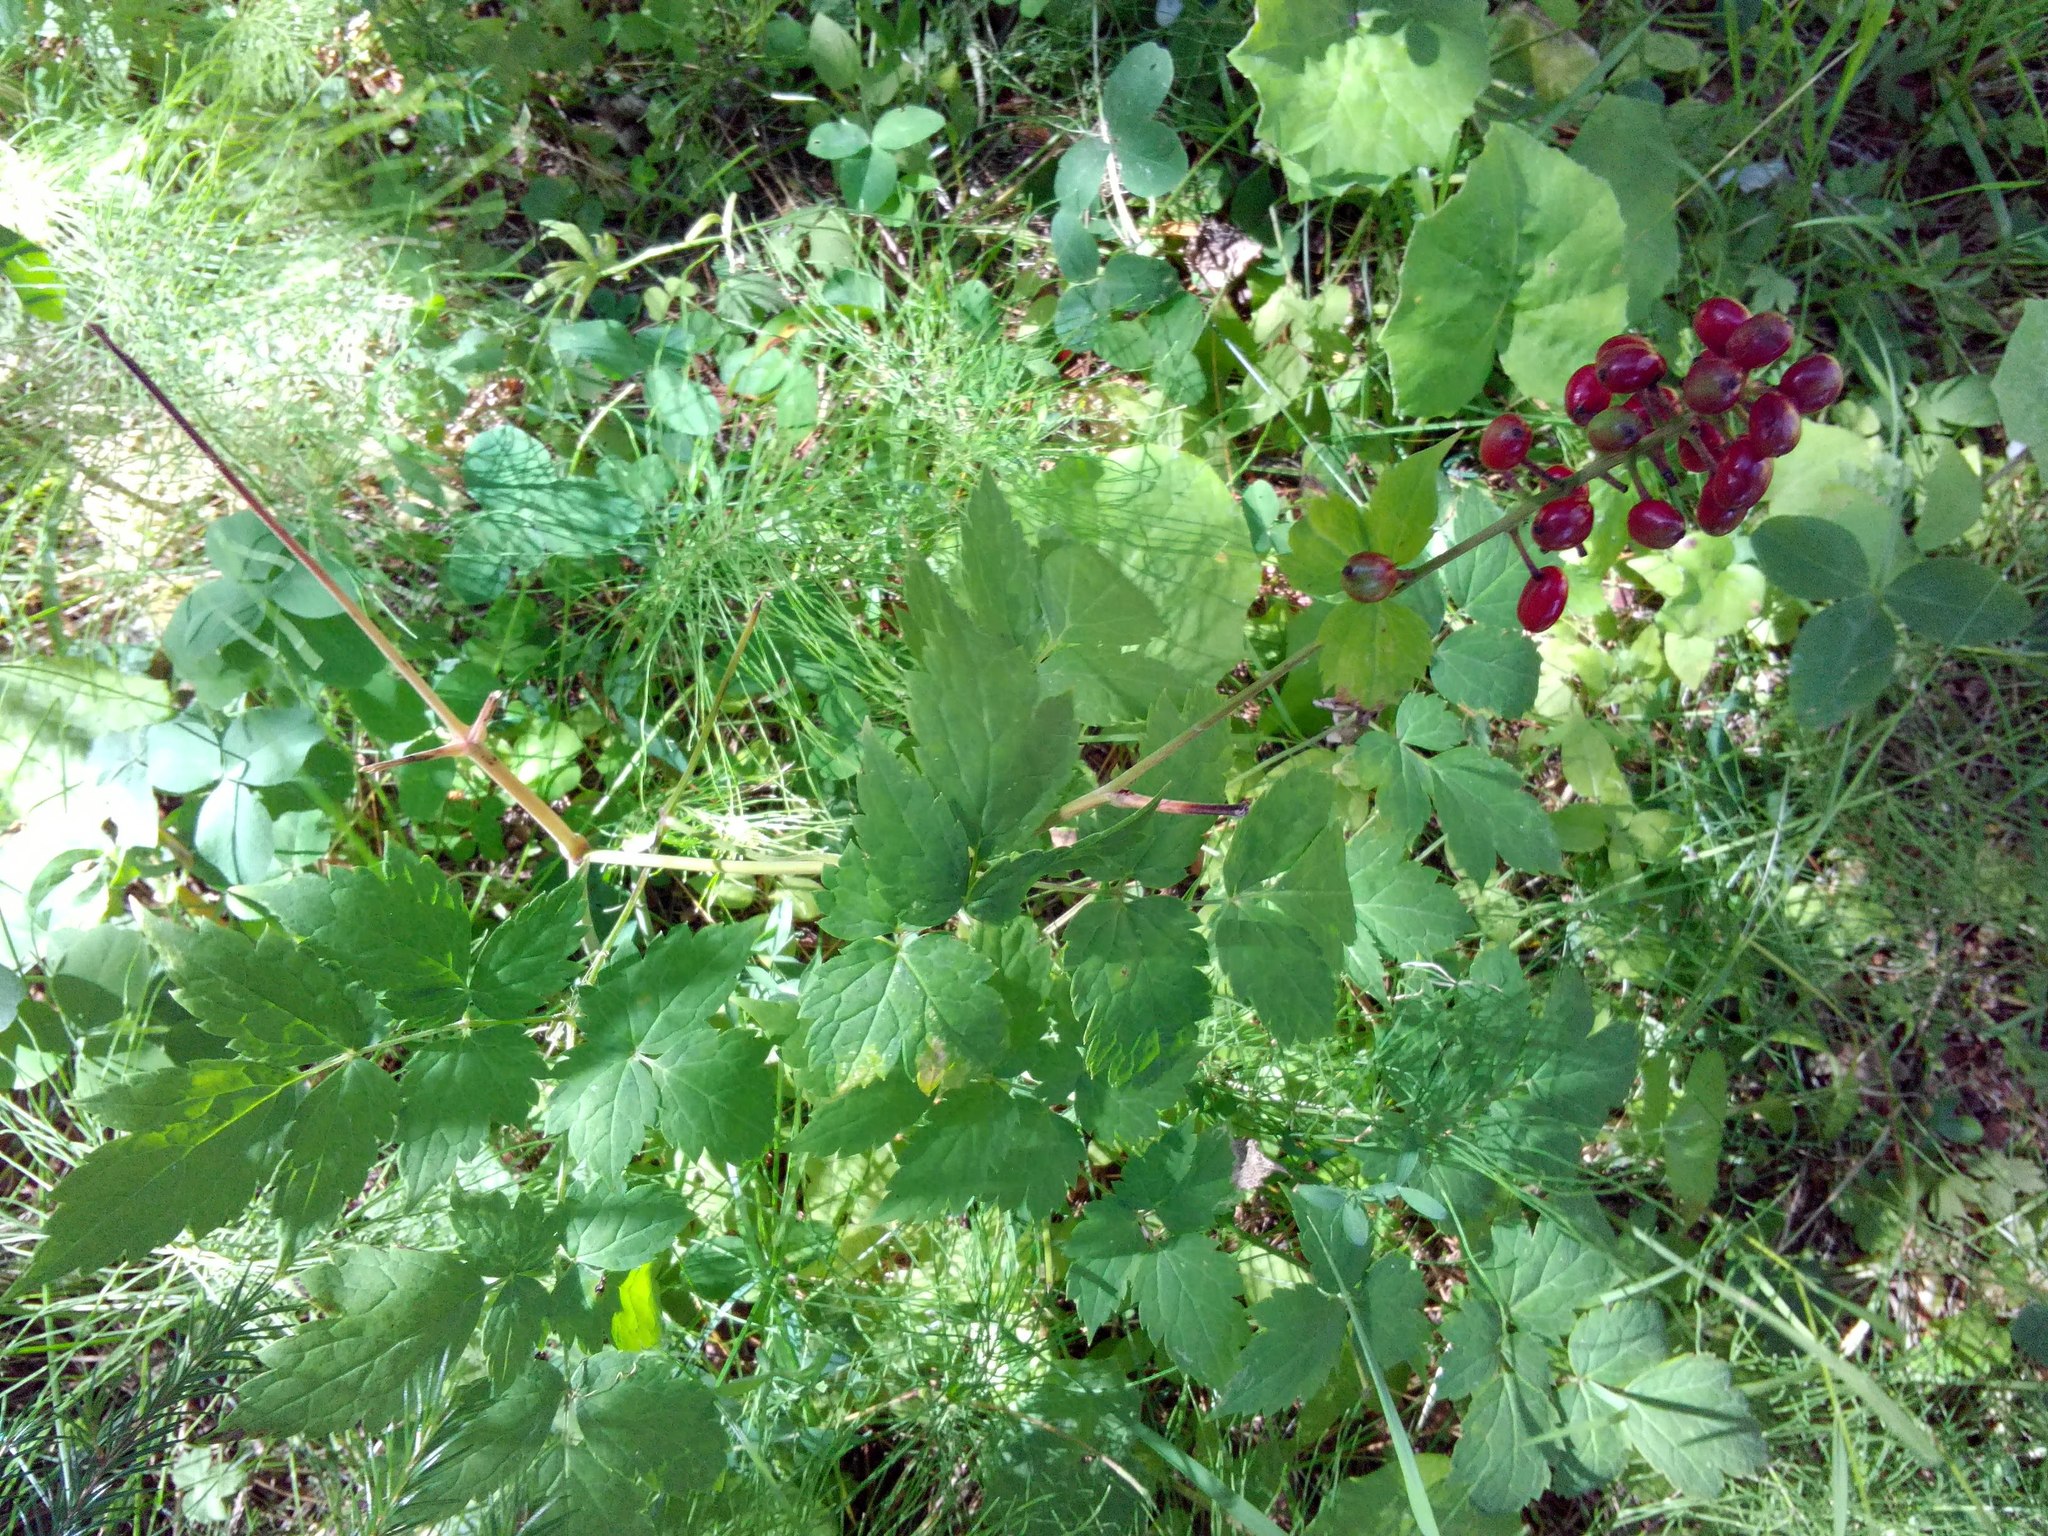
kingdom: Plantae
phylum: Tracheophyta
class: Magnoliopsida
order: Ranunculales
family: Ranunculaceae
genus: Actaea
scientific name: Actaea erythrocarpa
